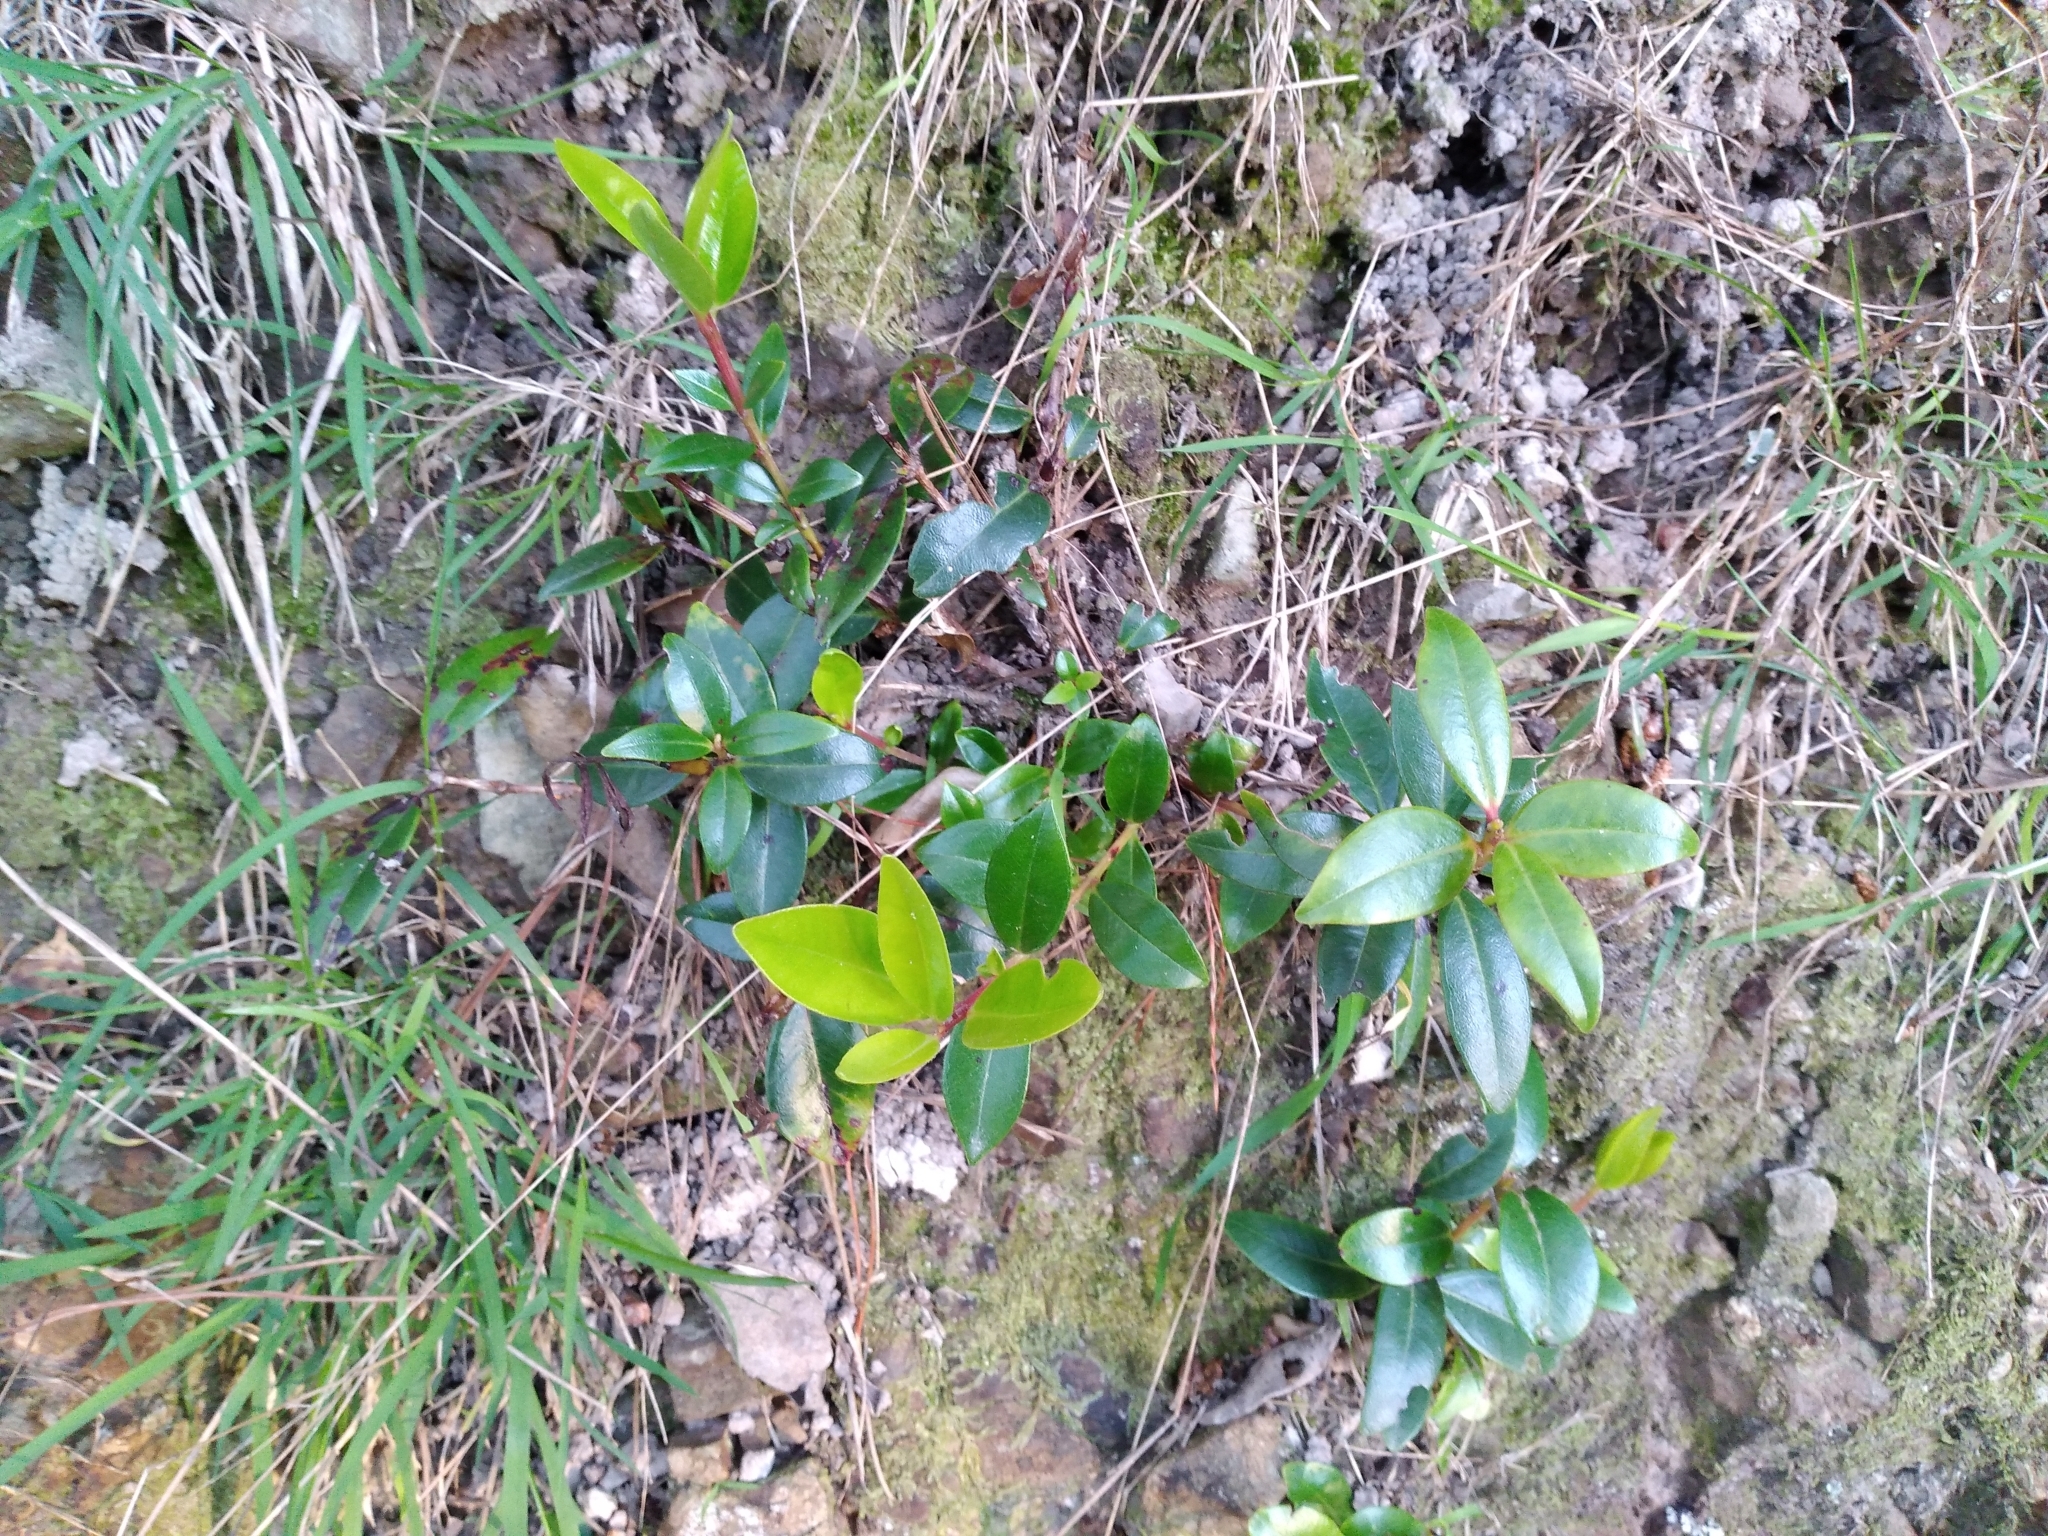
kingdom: Plantae
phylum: Tracheophyta
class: Magnoliopsida
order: Myrtales
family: Myrtaceae
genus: Metrosideros
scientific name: Metrosideros excelsa
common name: New zealand christmastree
